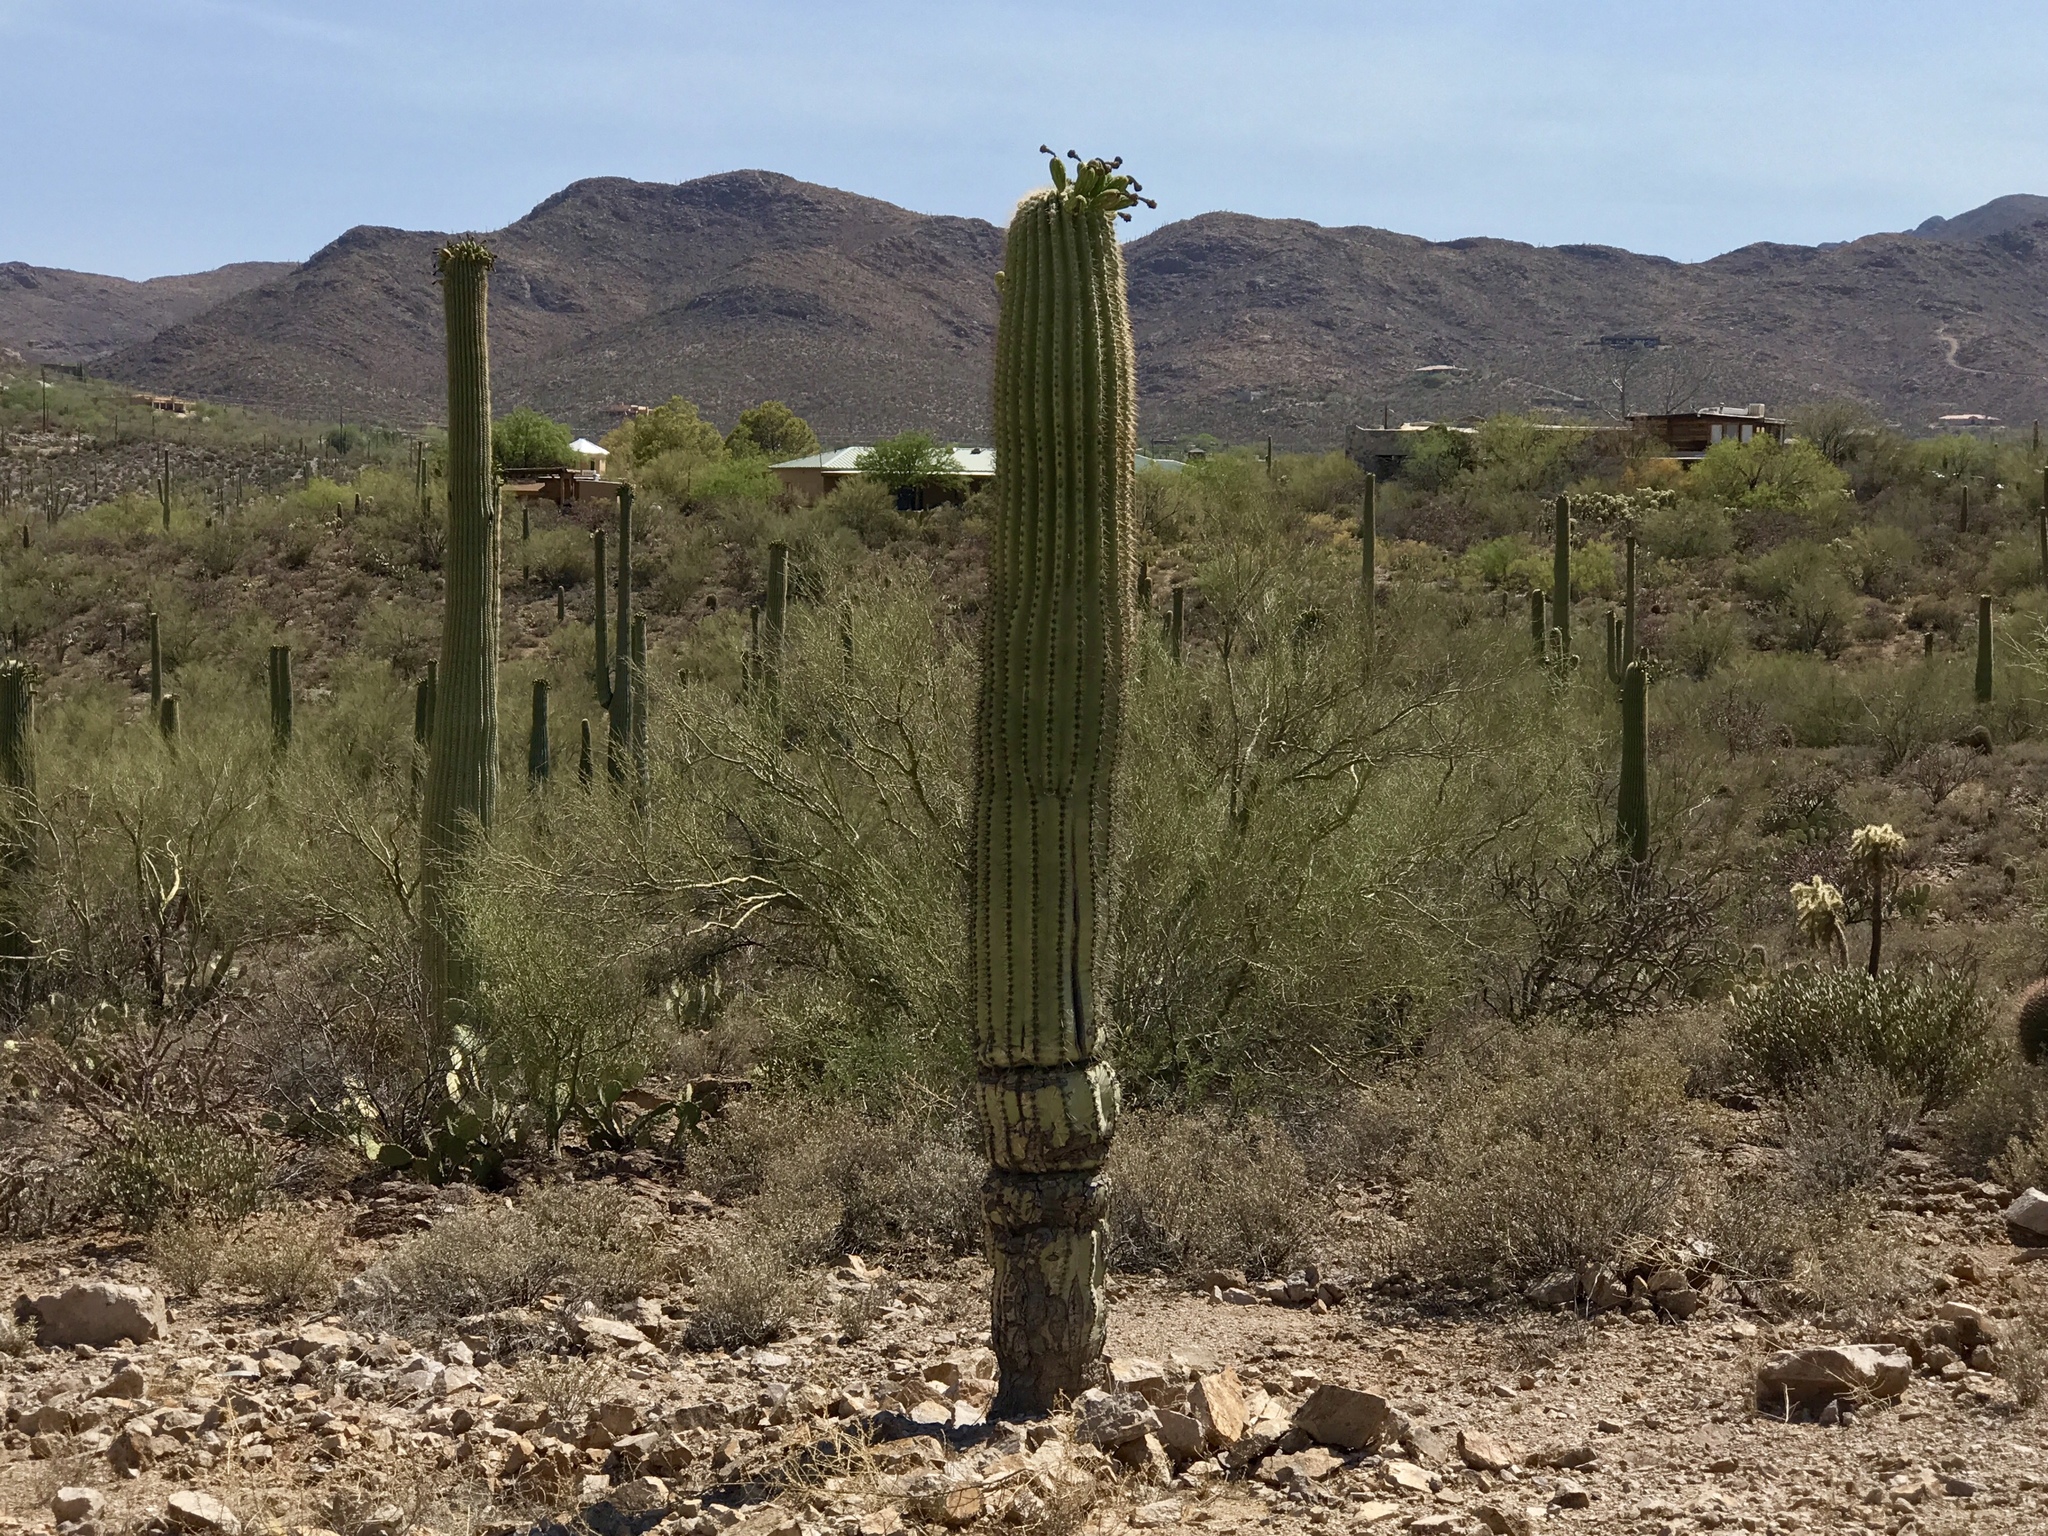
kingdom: Plantae
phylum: Tracheophyta
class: Magnoliopsida
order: Caryophyllales
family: Cactaceae
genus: Carnegiea
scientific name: Carnegiea gigantea
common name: Saguaro
